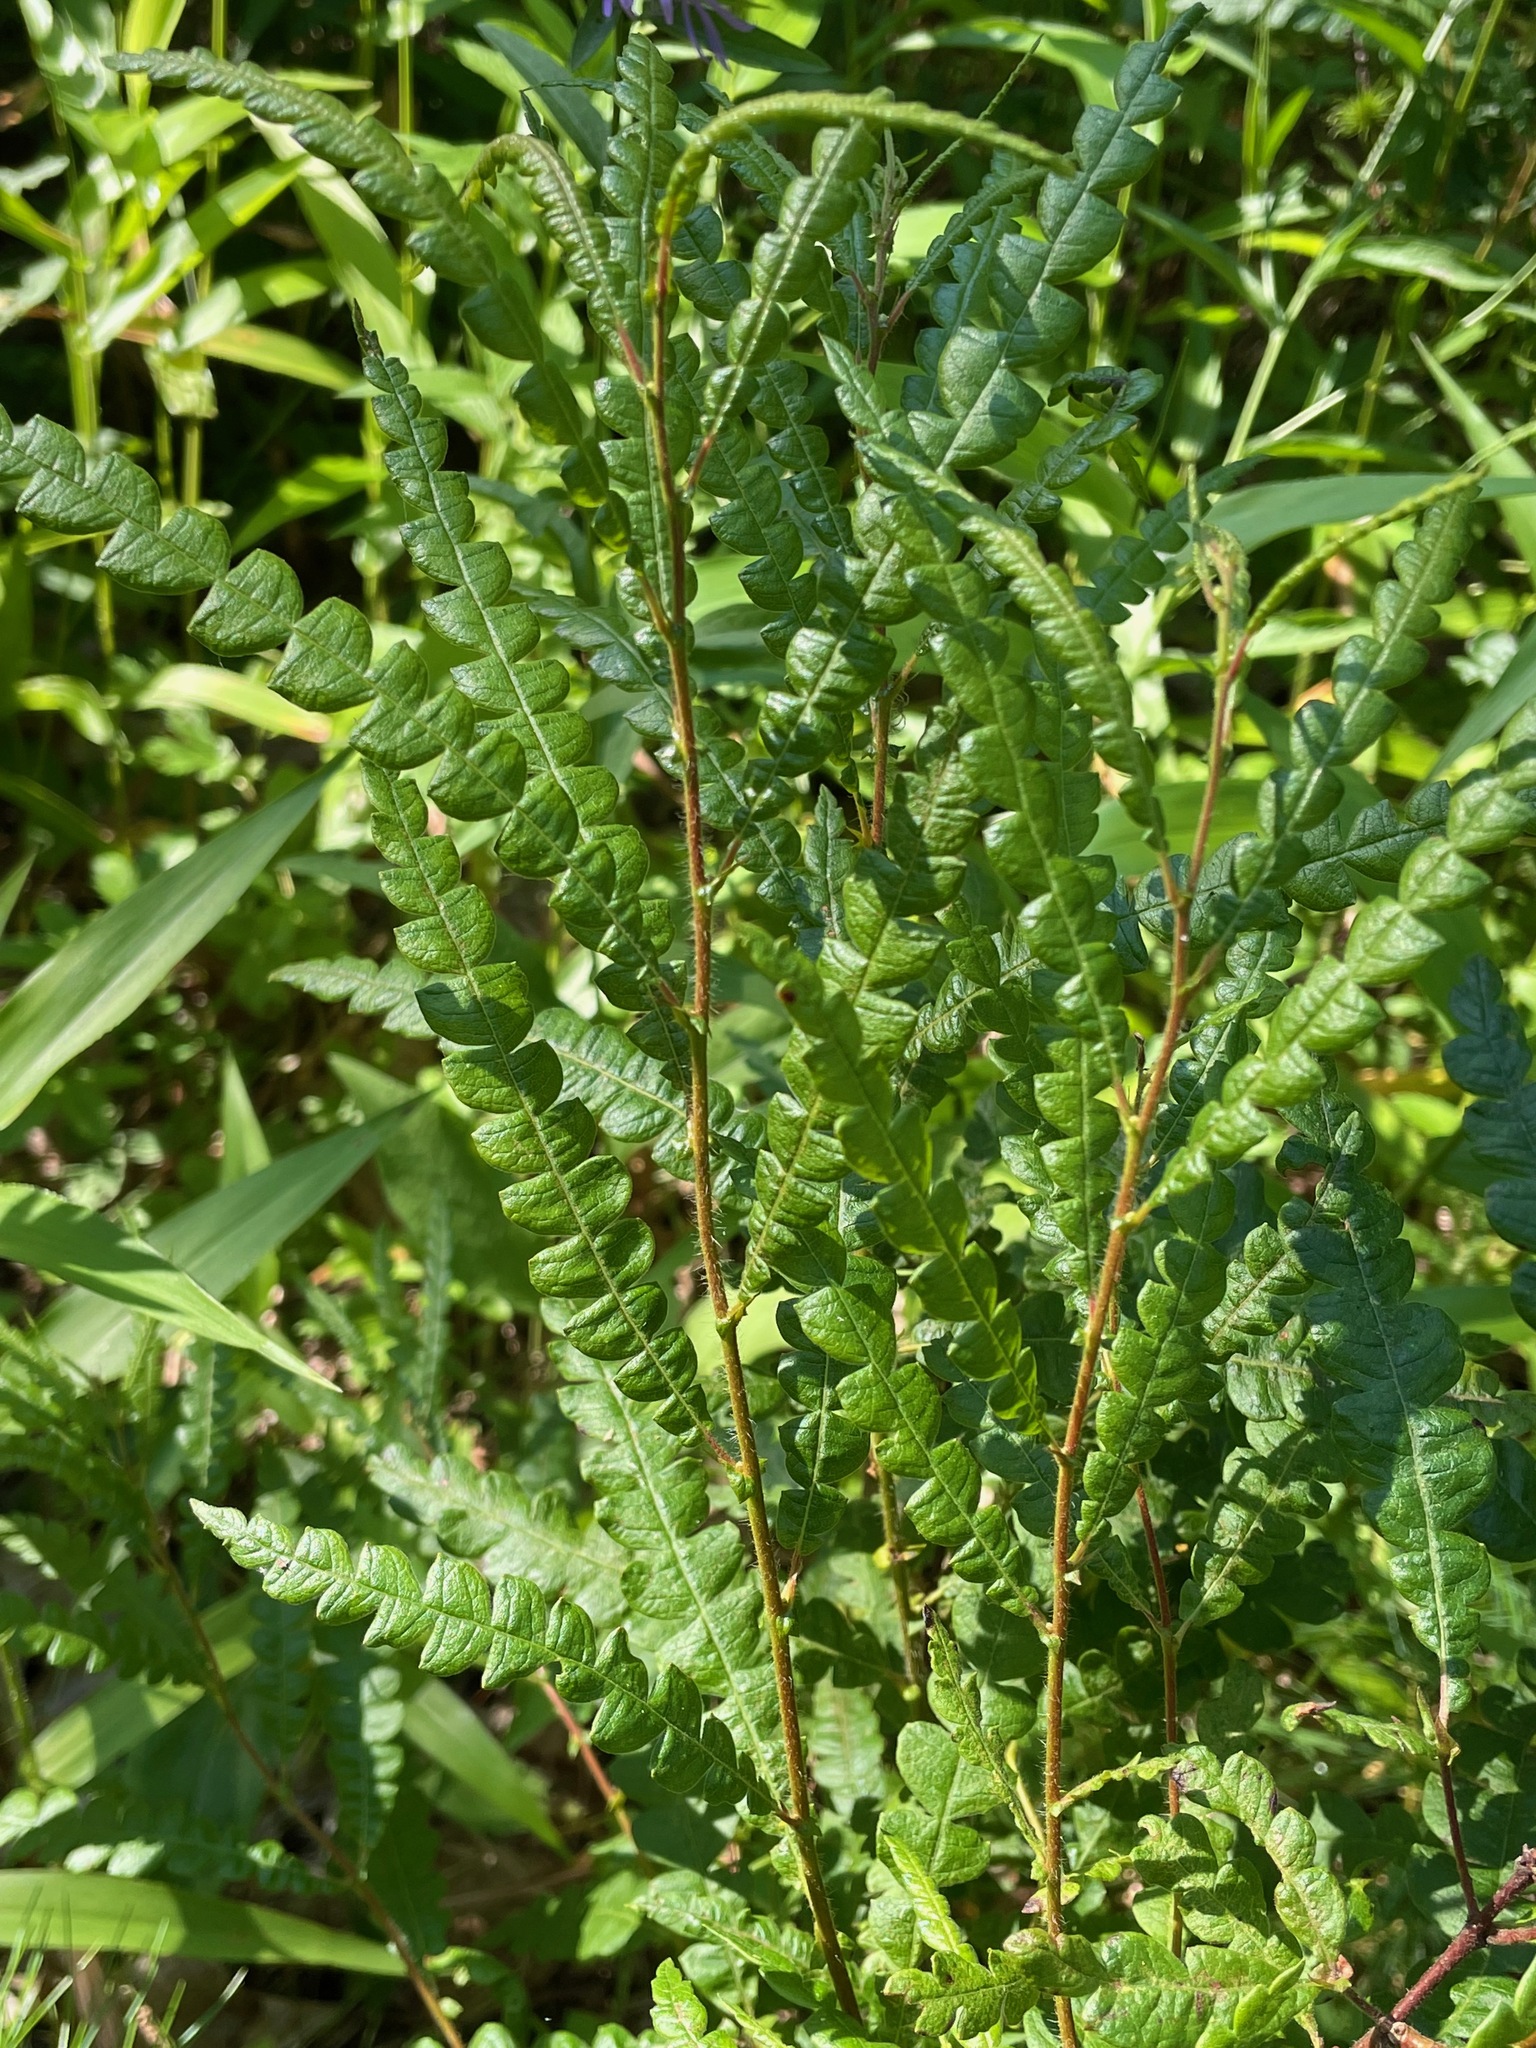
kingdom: Plantae
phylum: Tracheophyta
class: Magnoliopsida
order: Fagales
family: Myricaceae
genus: Comptonia
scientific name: Comptonia peregrina
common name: Sweet-fern
